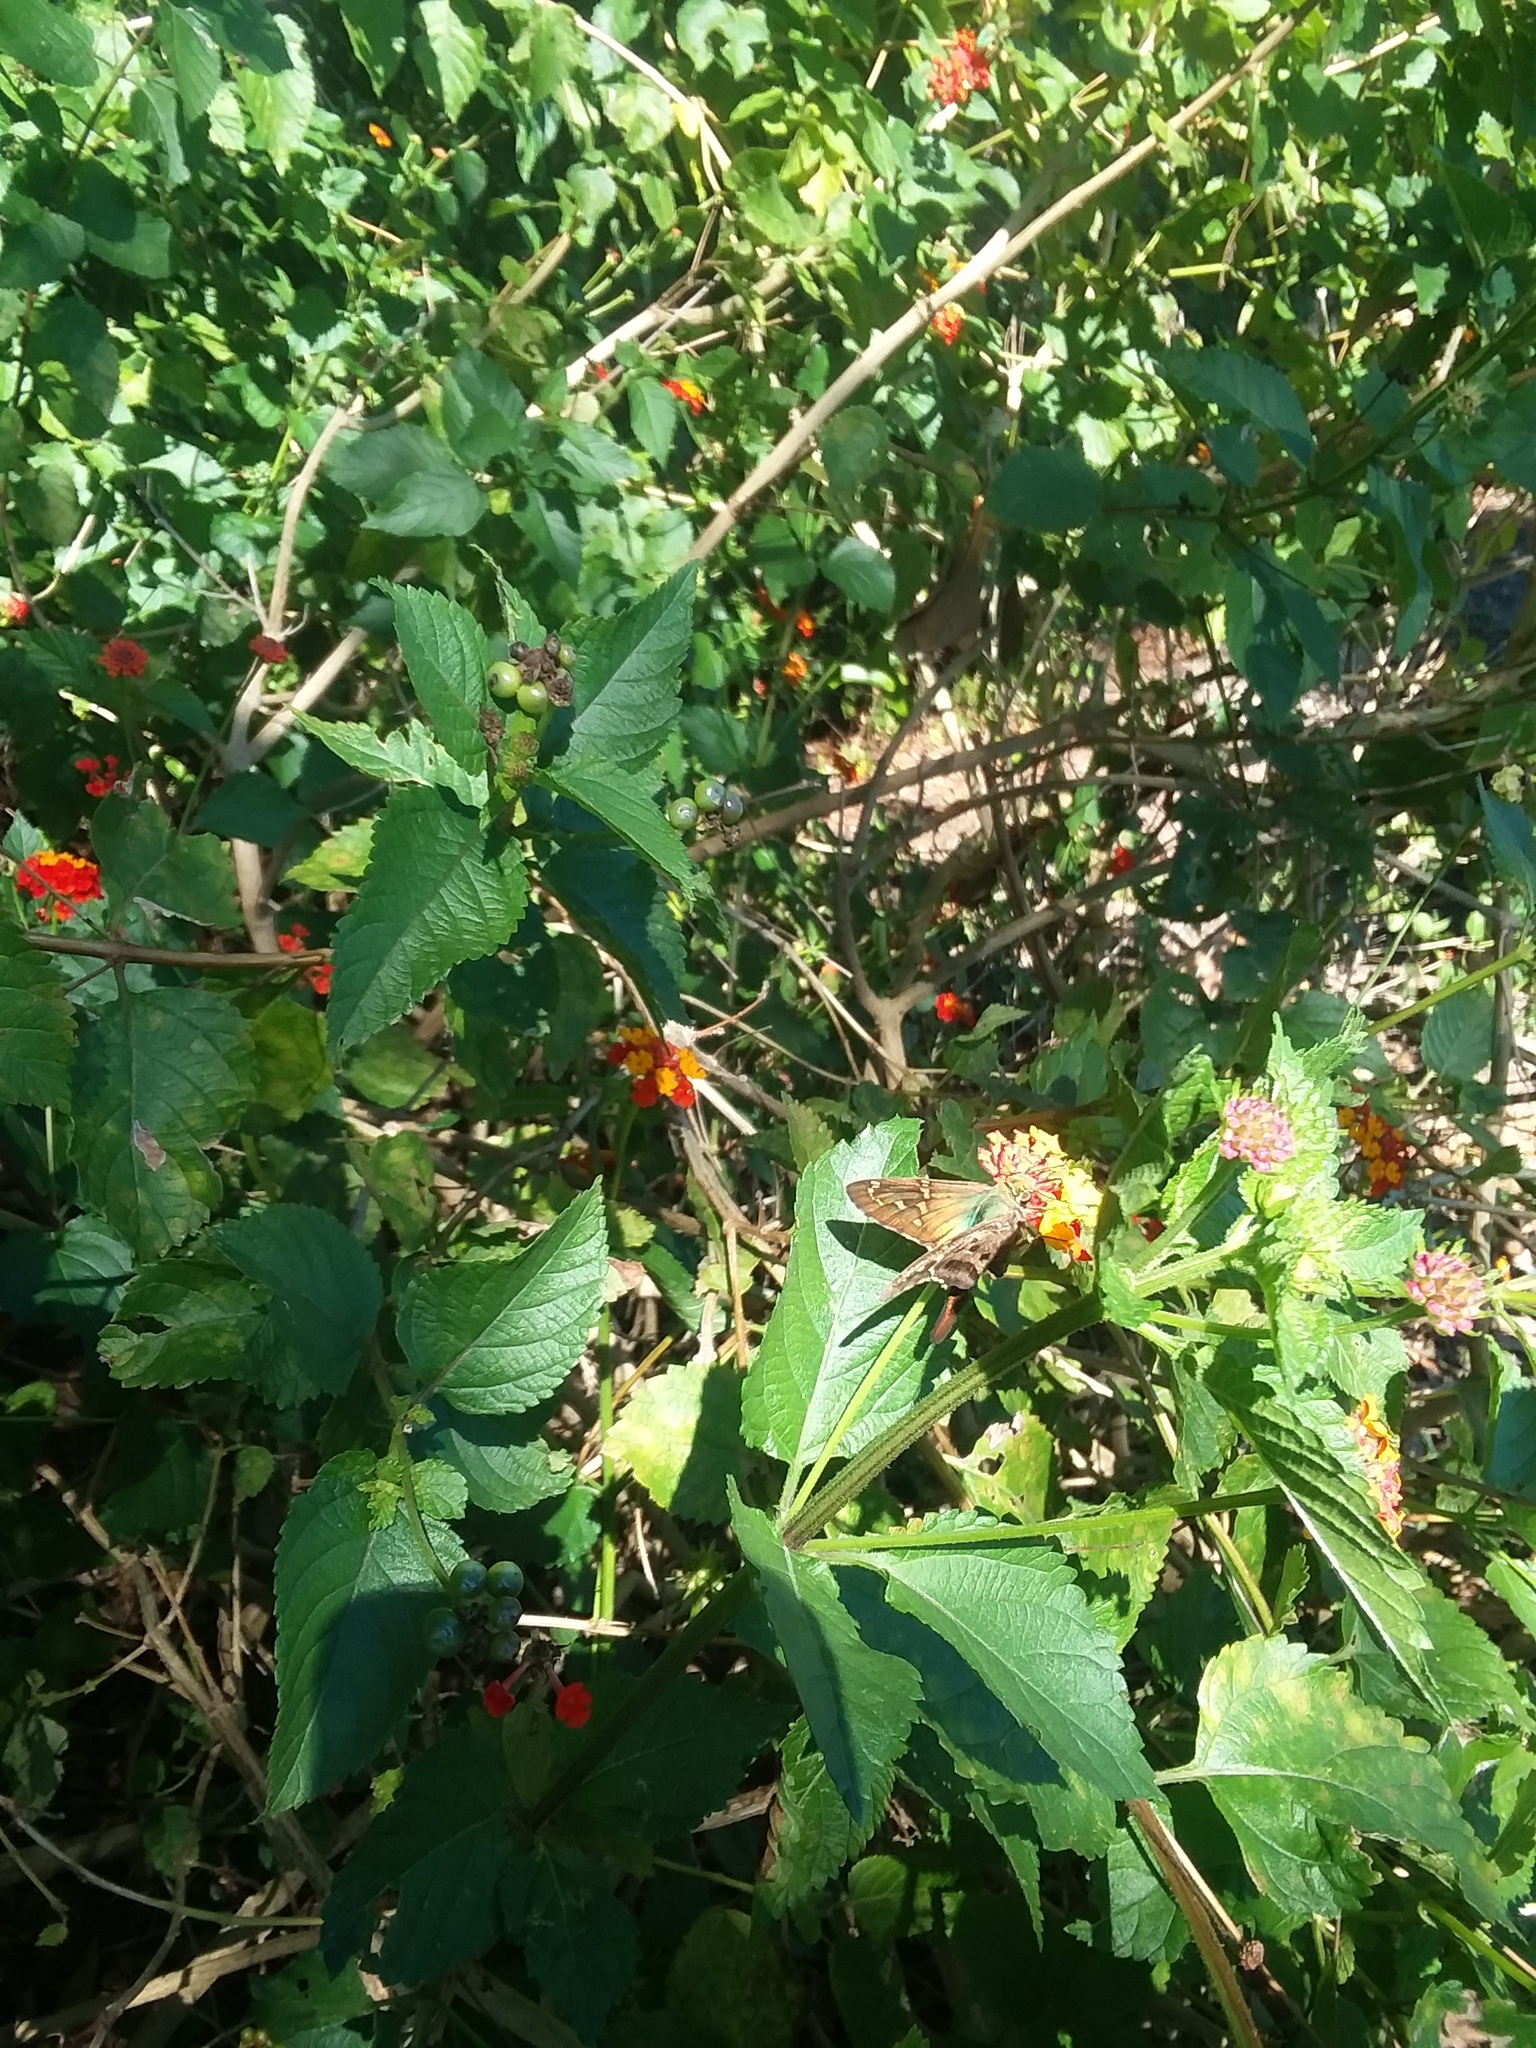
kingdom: Animalia
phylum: Arthropoda
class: Insecta
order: Lepidoptera
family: Hesperiidae
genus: Urbanus
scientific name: Urbanus proteus
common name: Long-tailed skipper
